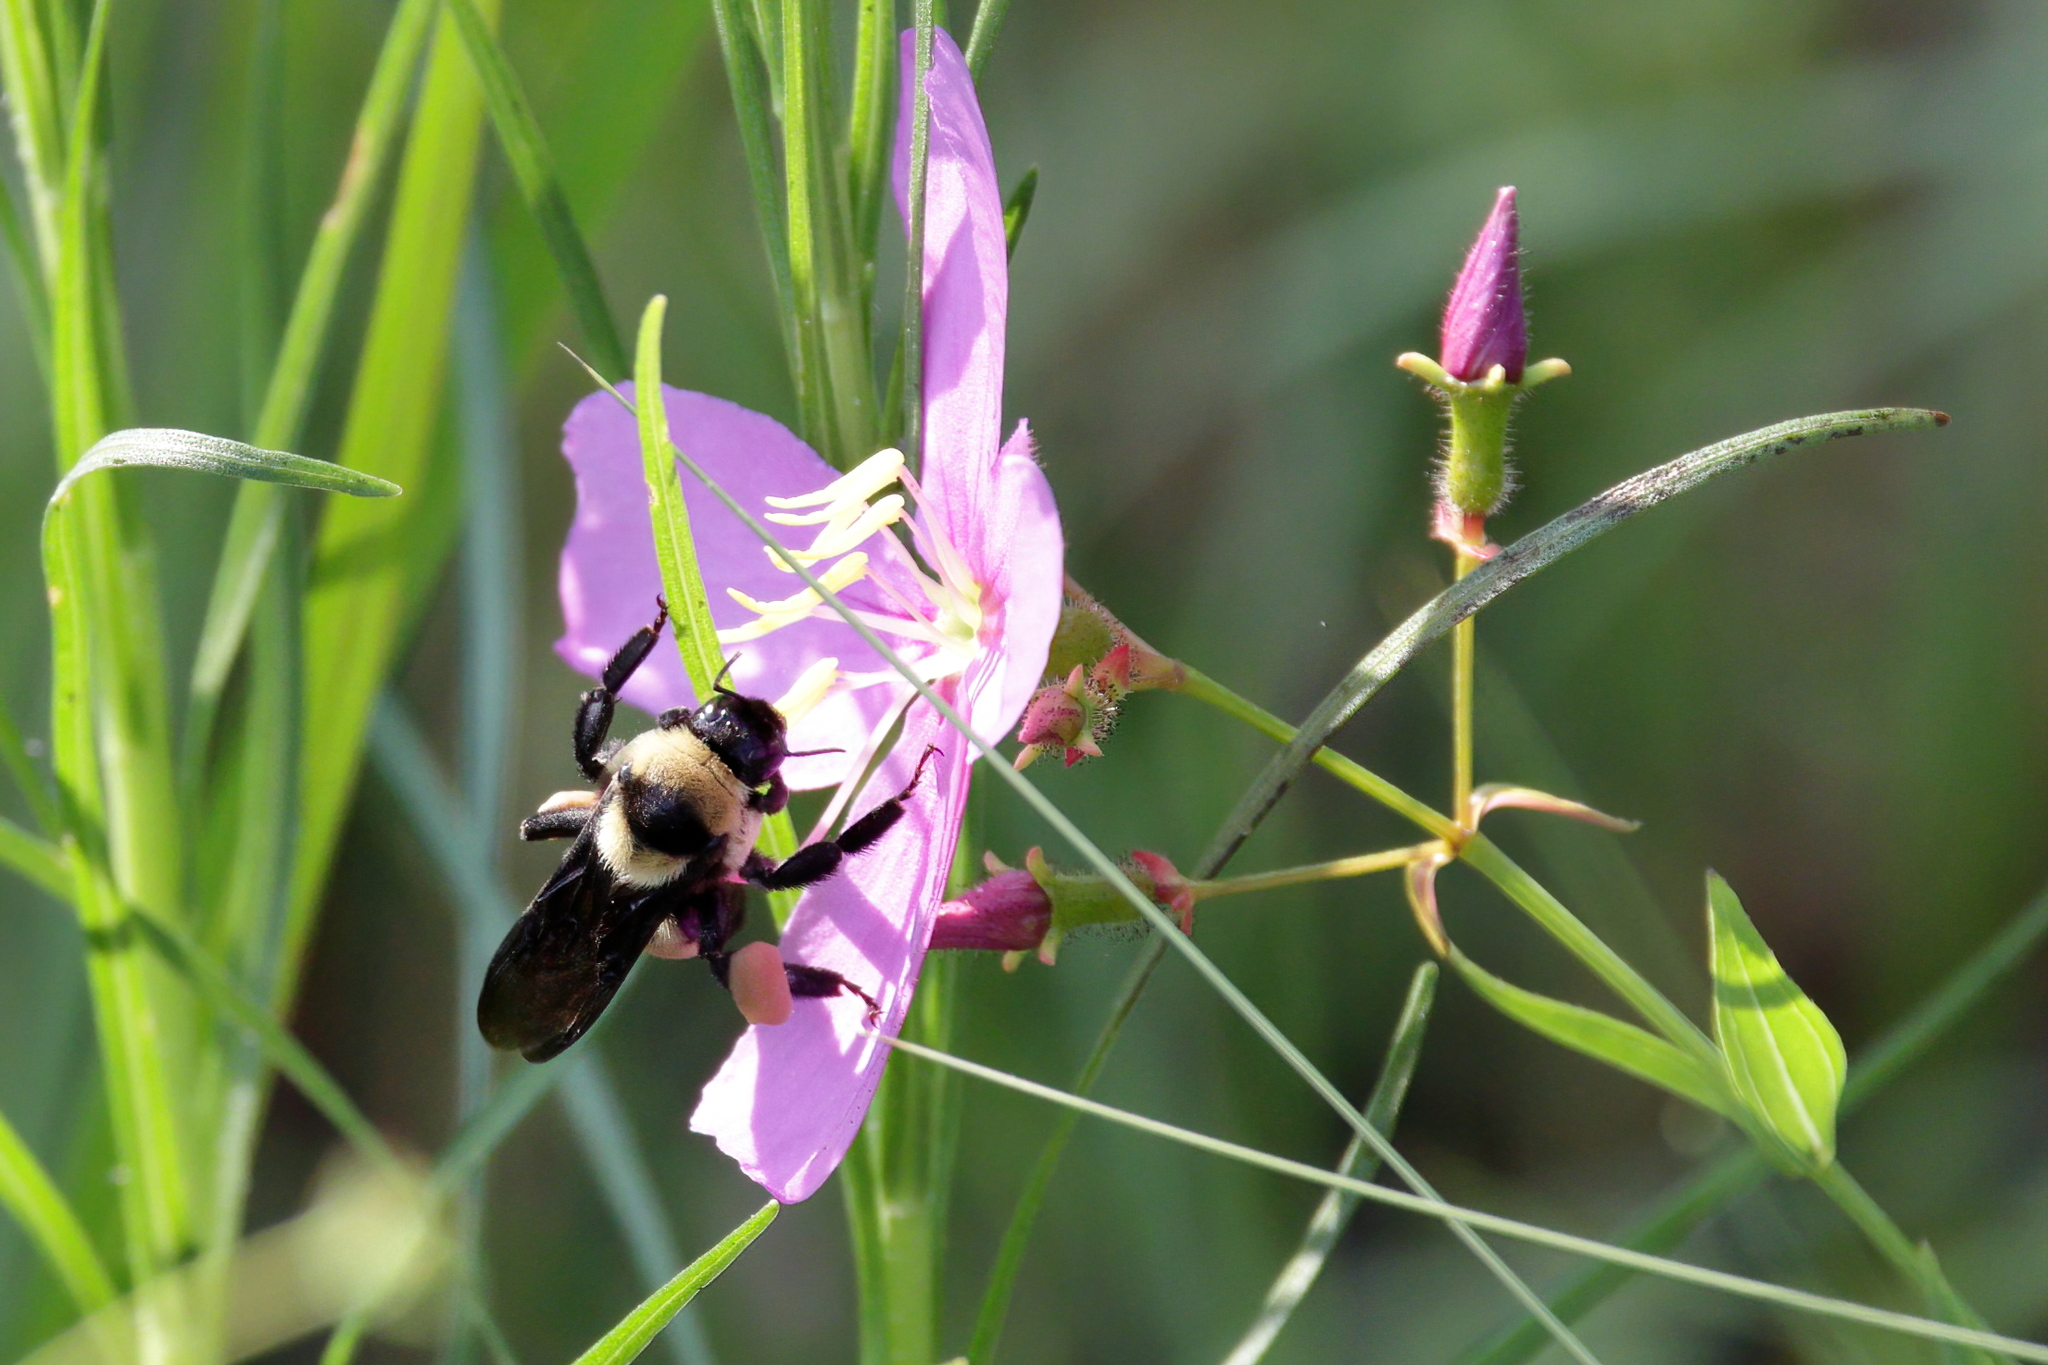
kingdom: Animalia
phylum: Arthropoda
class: Insecta
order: Hymenoptera
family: Apidae
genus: Bombus
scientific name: Bombus fraternus
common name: Southern plains bumble bee
